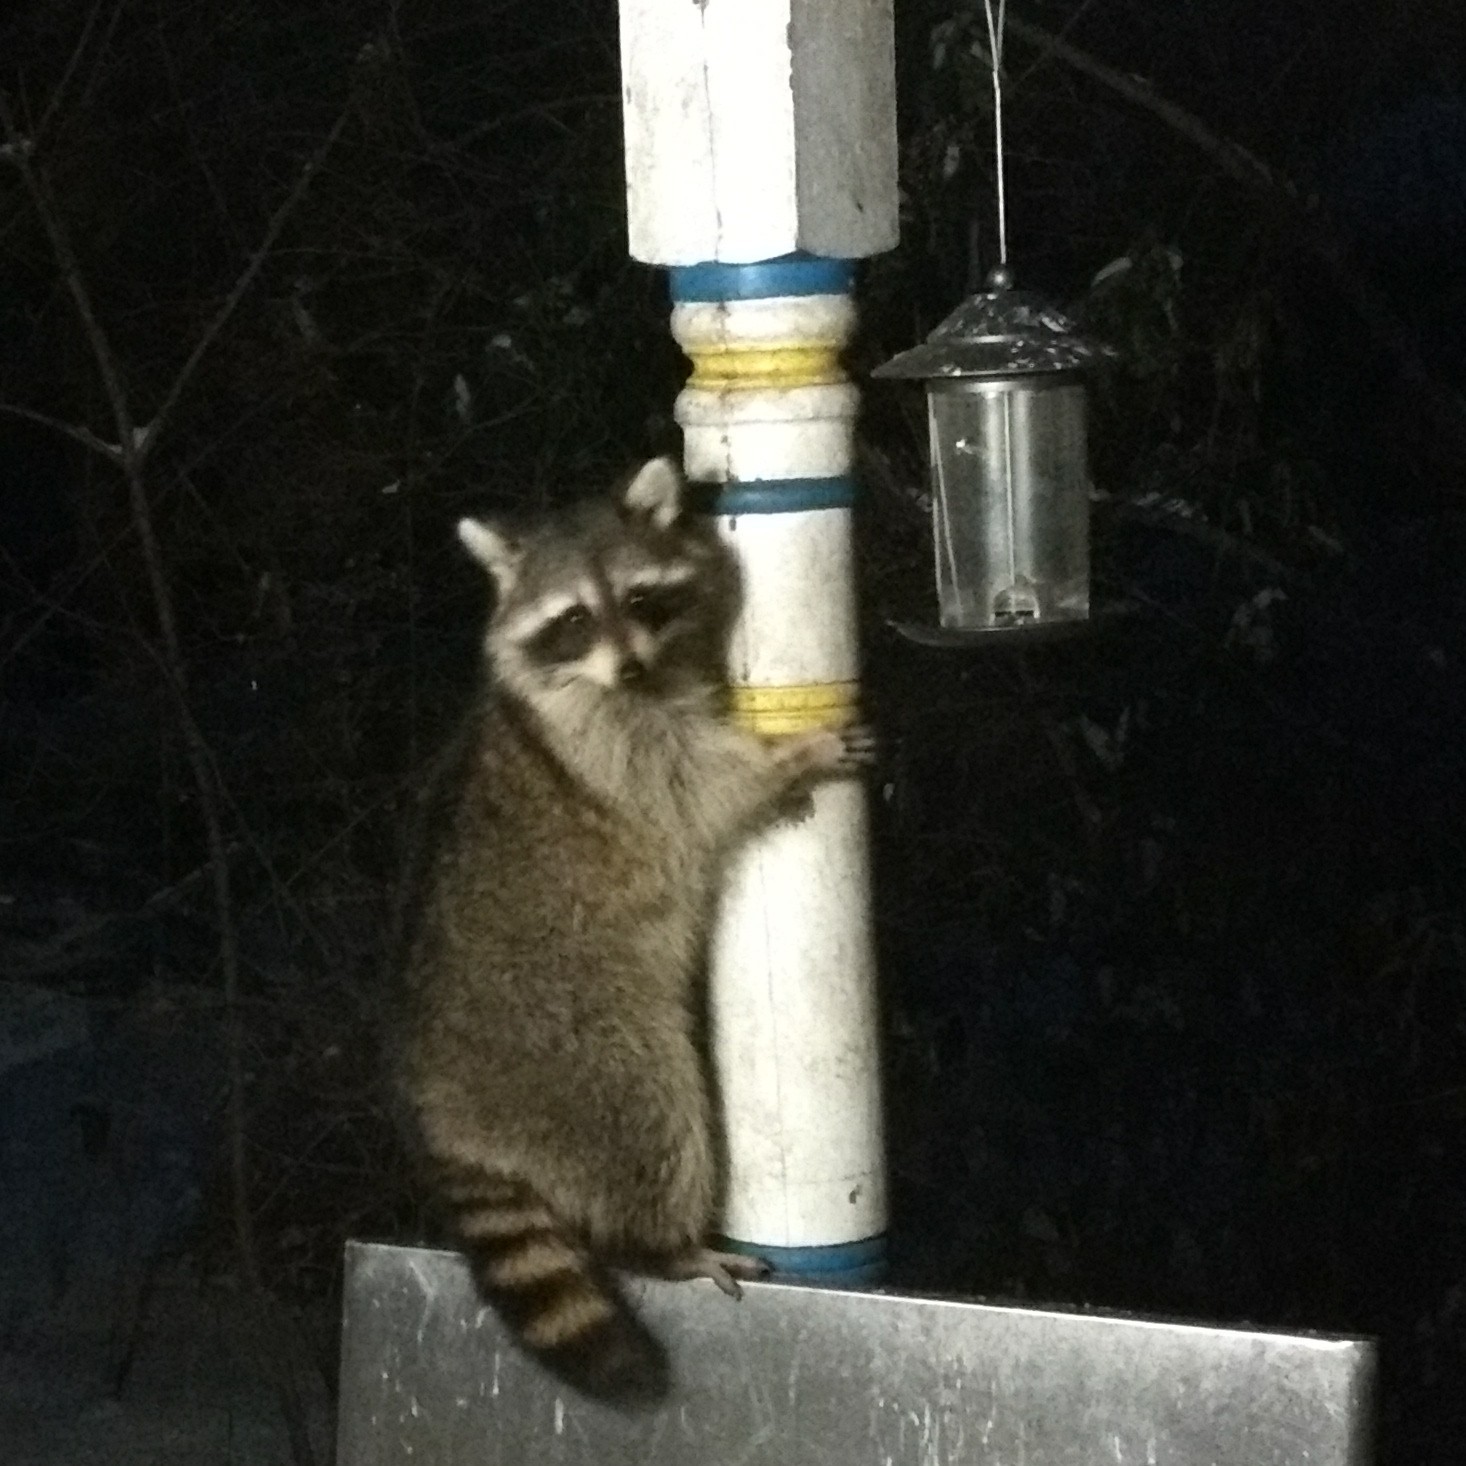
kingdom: Animalia
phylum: Chordata
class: Mammalia
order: Carnivora
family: Procyonidae
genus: Procyon
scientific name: Procyon lotor
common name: Raccoon
